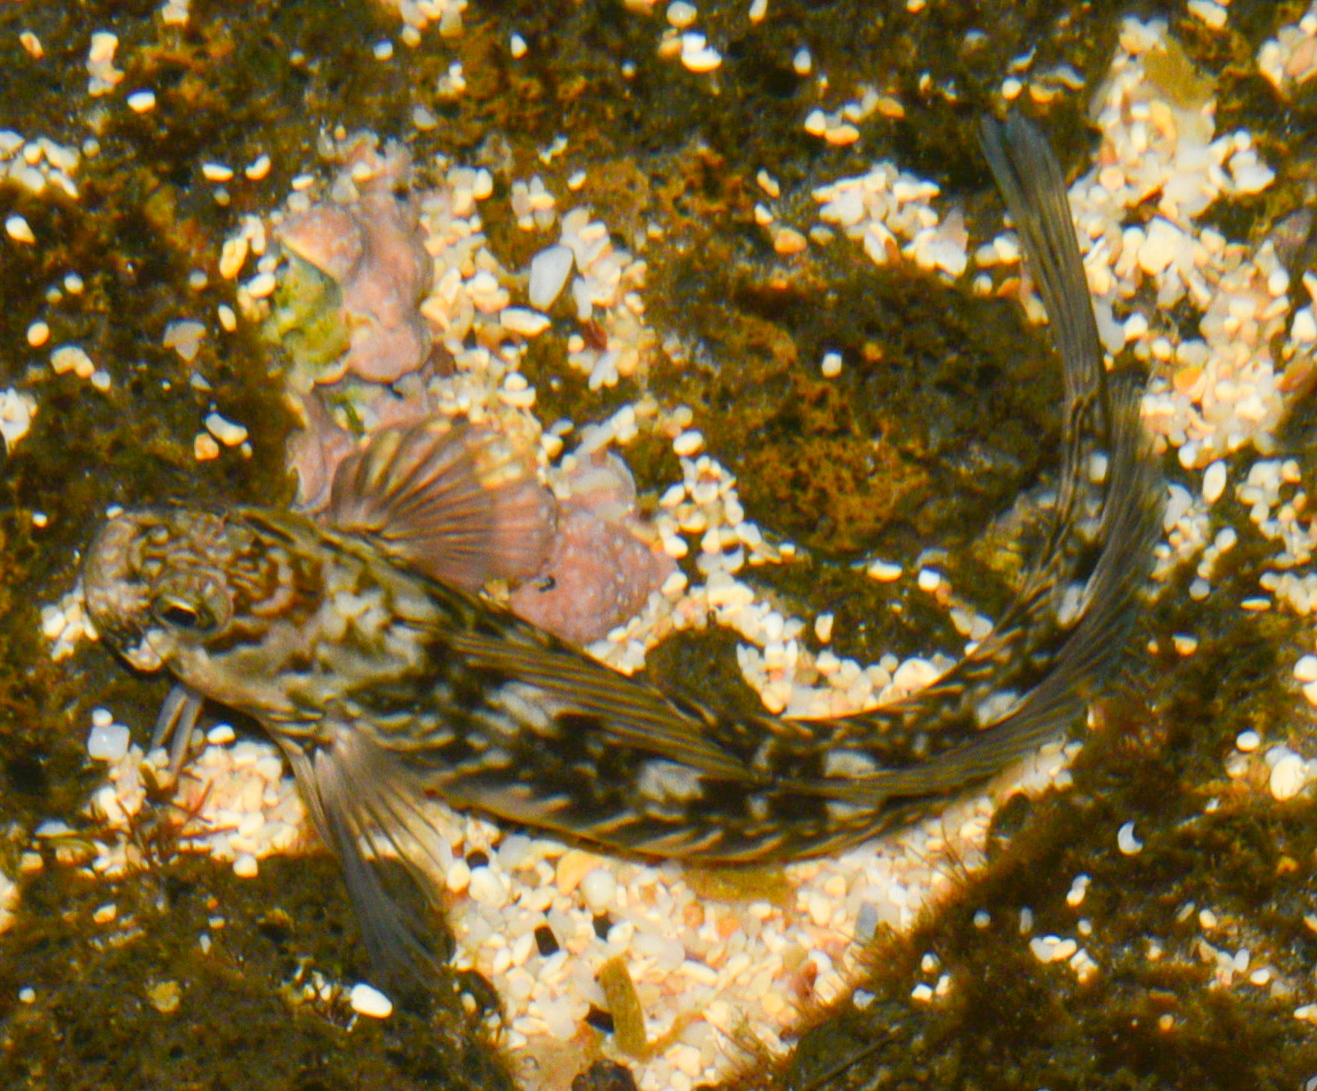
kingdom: Animalia
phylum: Chordata
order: Perciformes
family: Blenniidae
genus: Istiblennius
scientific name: Istiblennius zebra
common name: Zebra blenny
